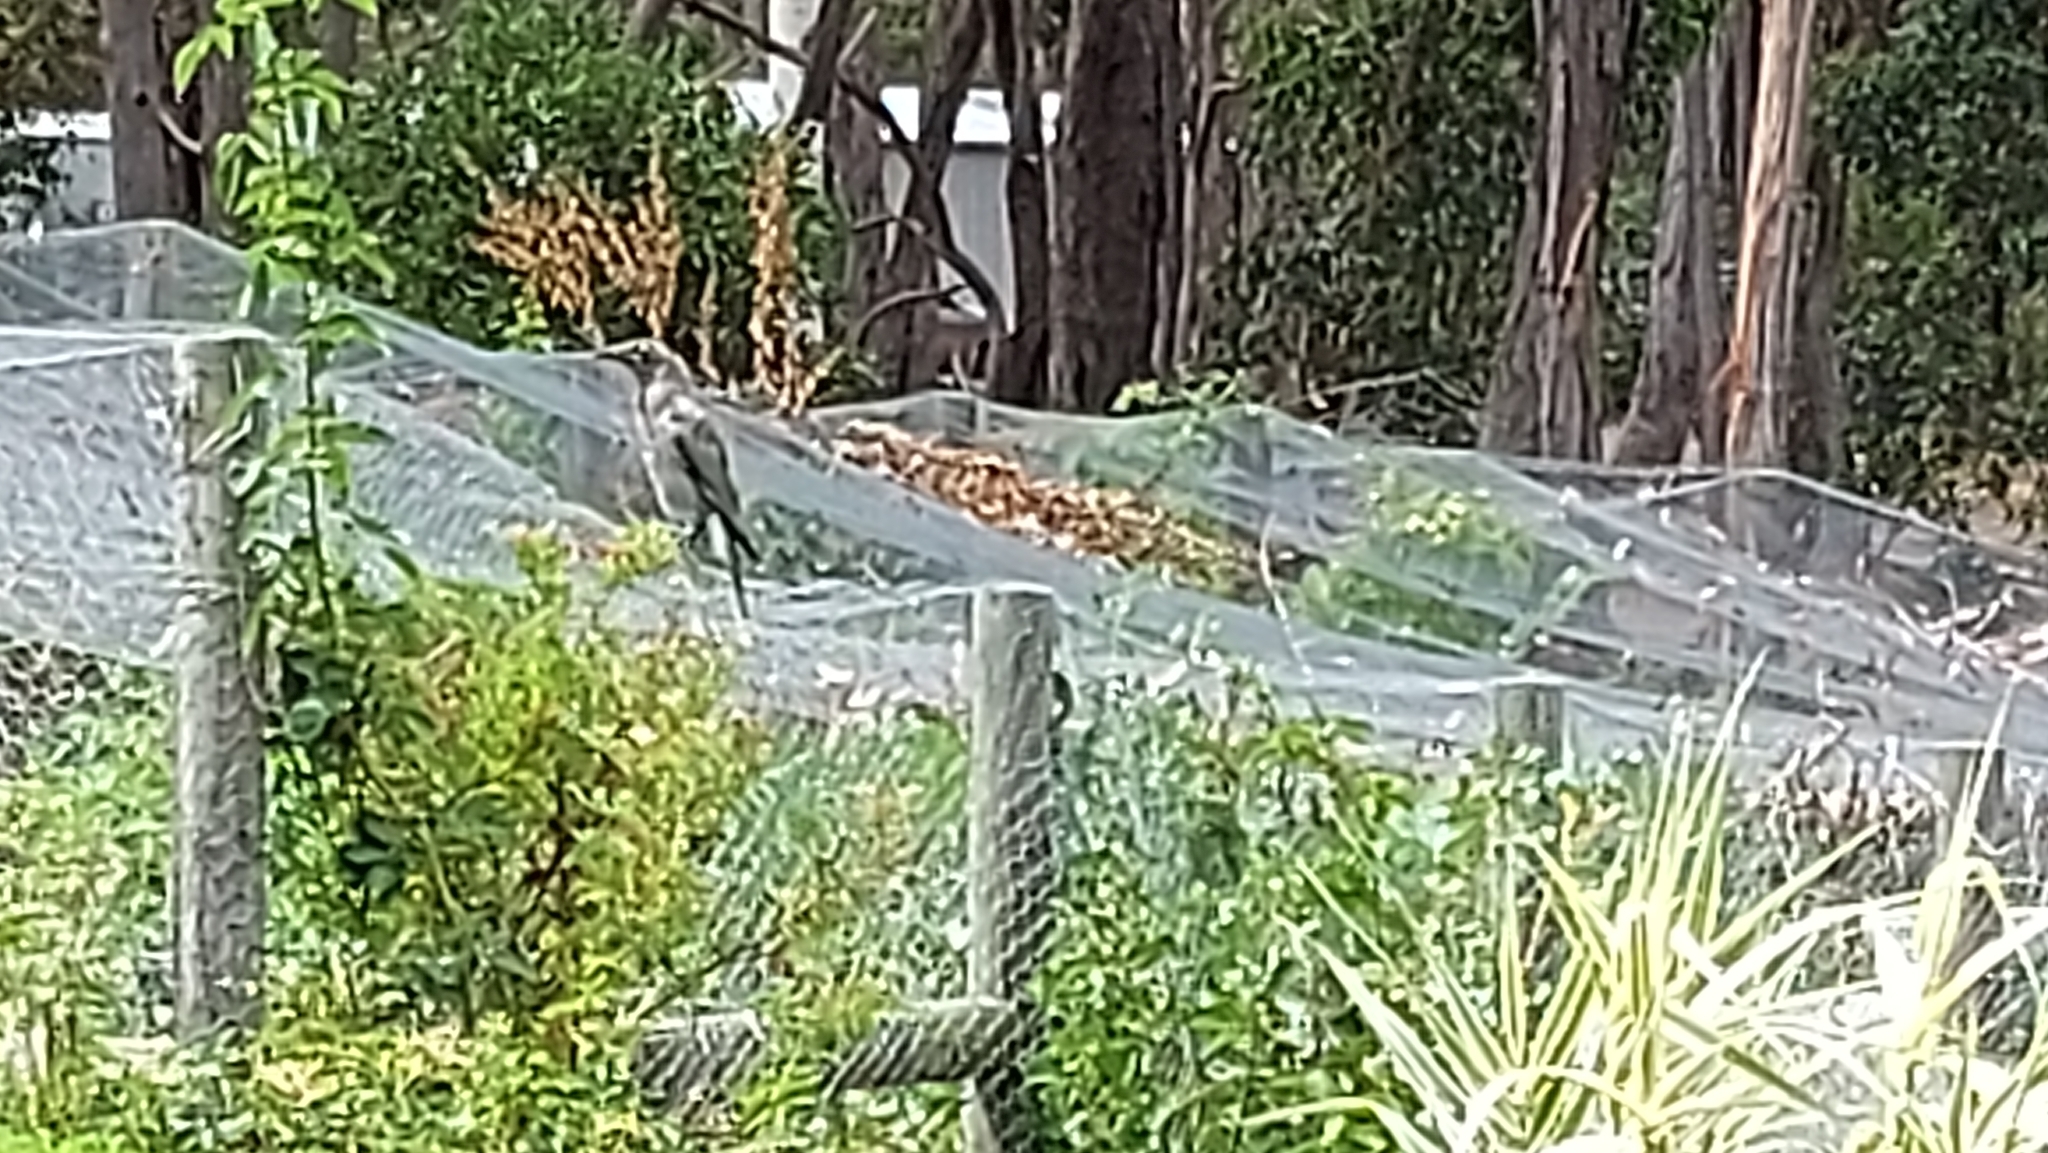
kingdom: Animalia
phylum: Chordata
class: Aves
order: Passeriformes
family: Cracticidae
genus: Strepera
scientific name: Strepera versicolor
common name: Grey currawong
